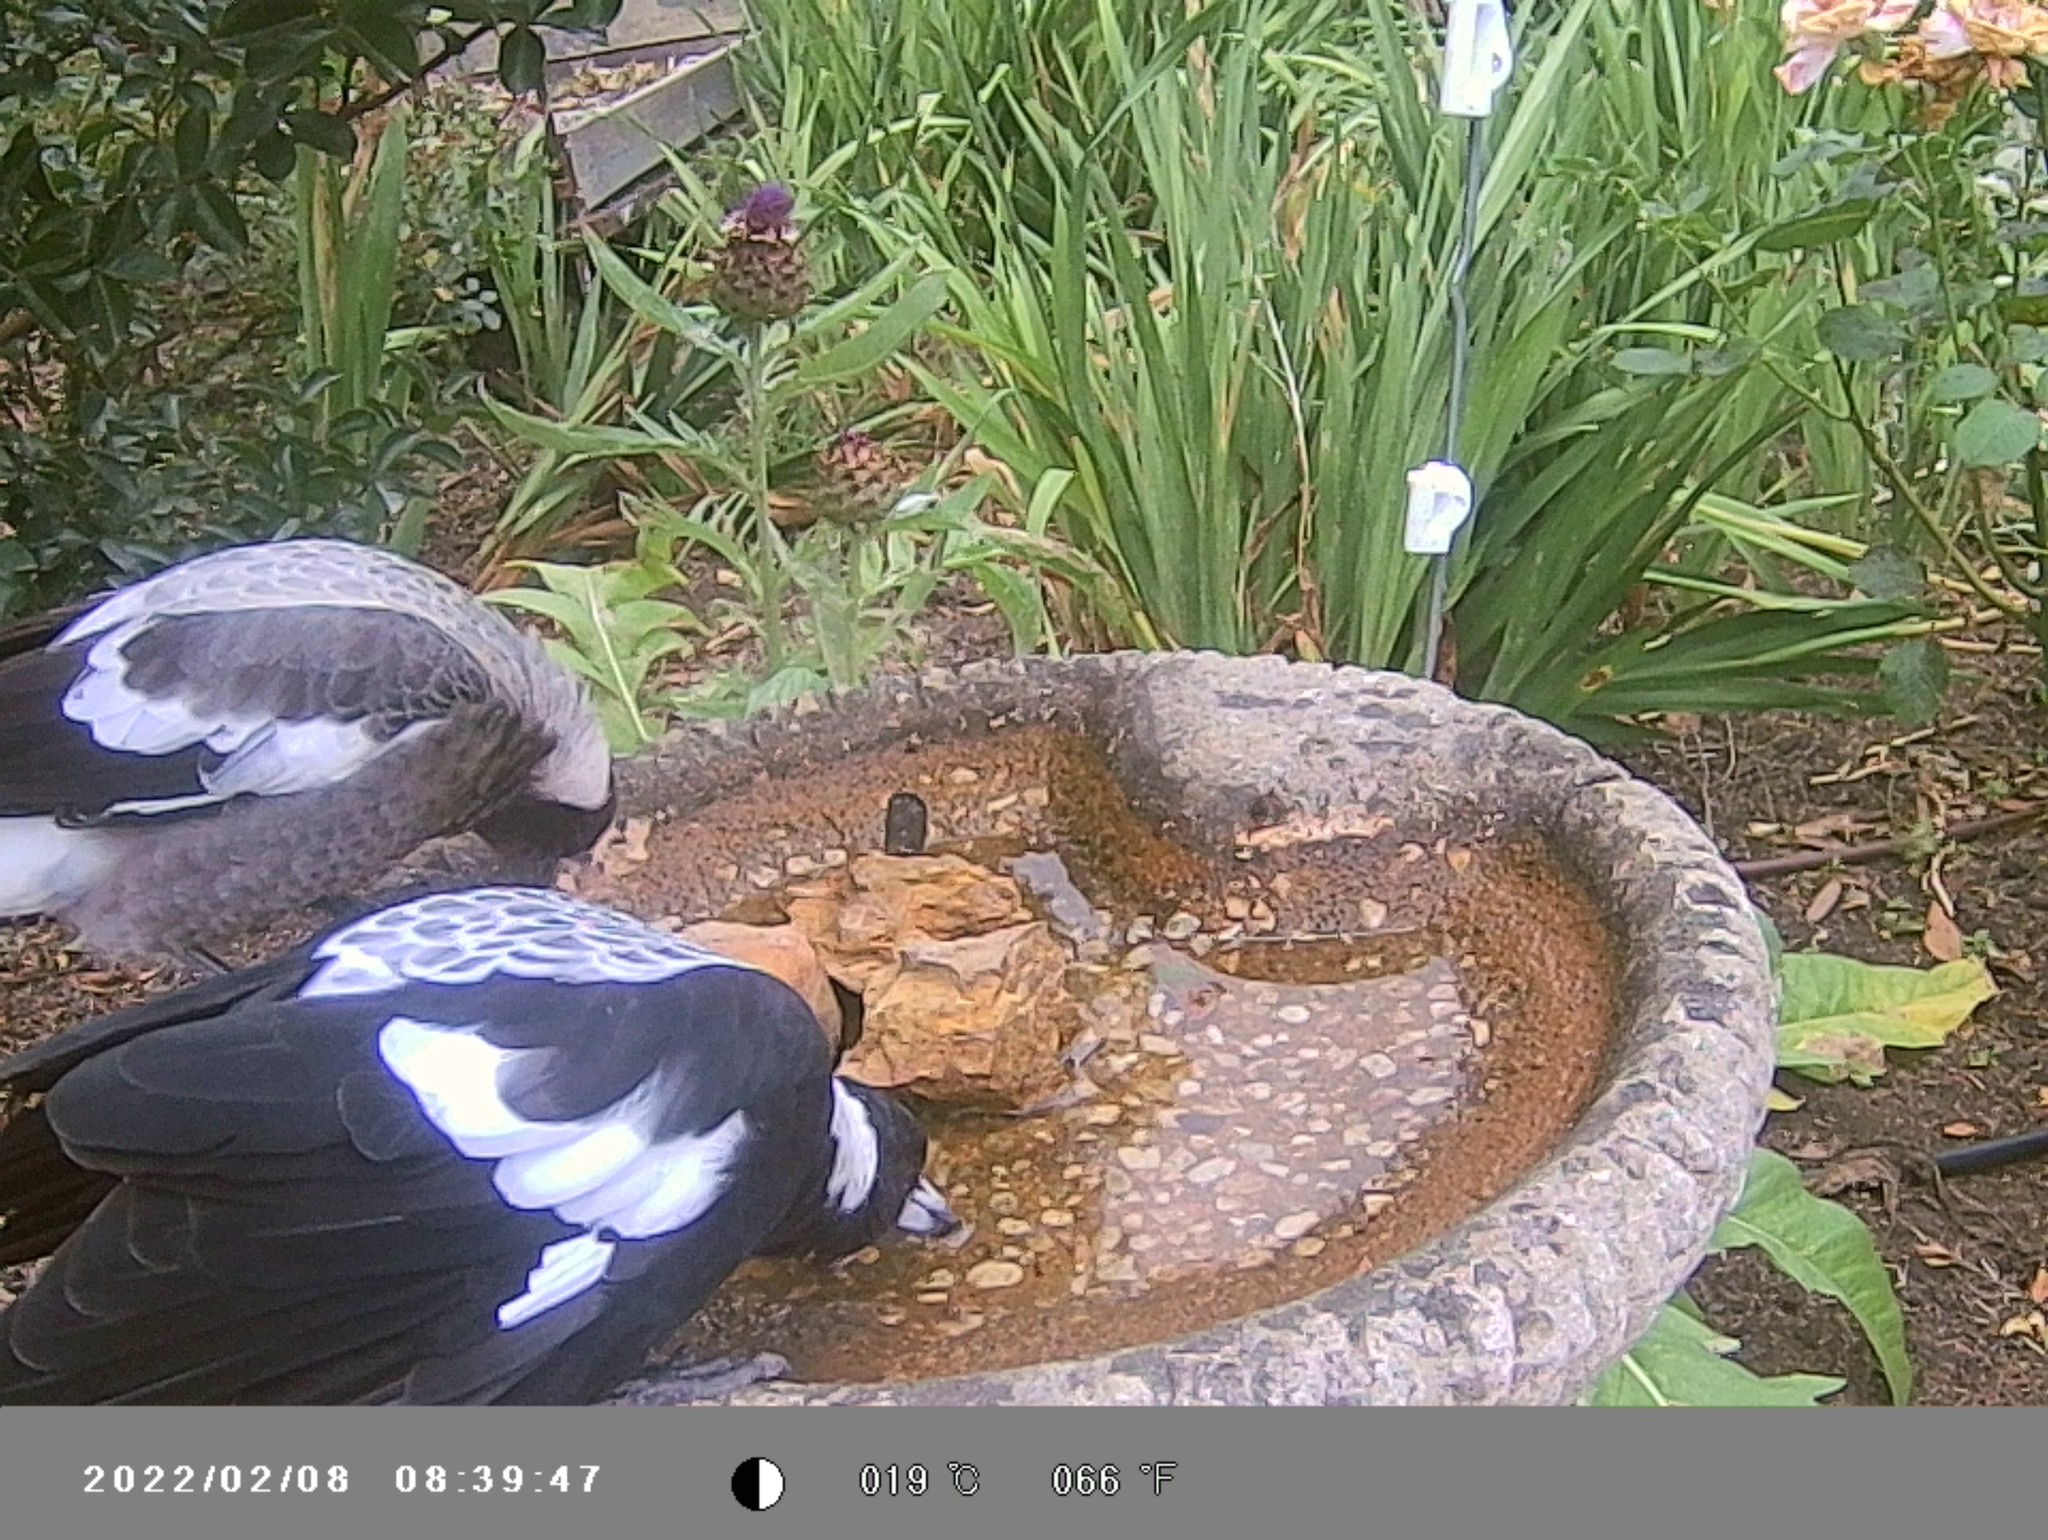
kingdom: Animalia
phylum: Chordata
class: Aves
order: Passeriformes
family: Cracticidae
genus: Gymnorhina
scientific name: Gymnorhina tibicen
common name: Australian magpie
